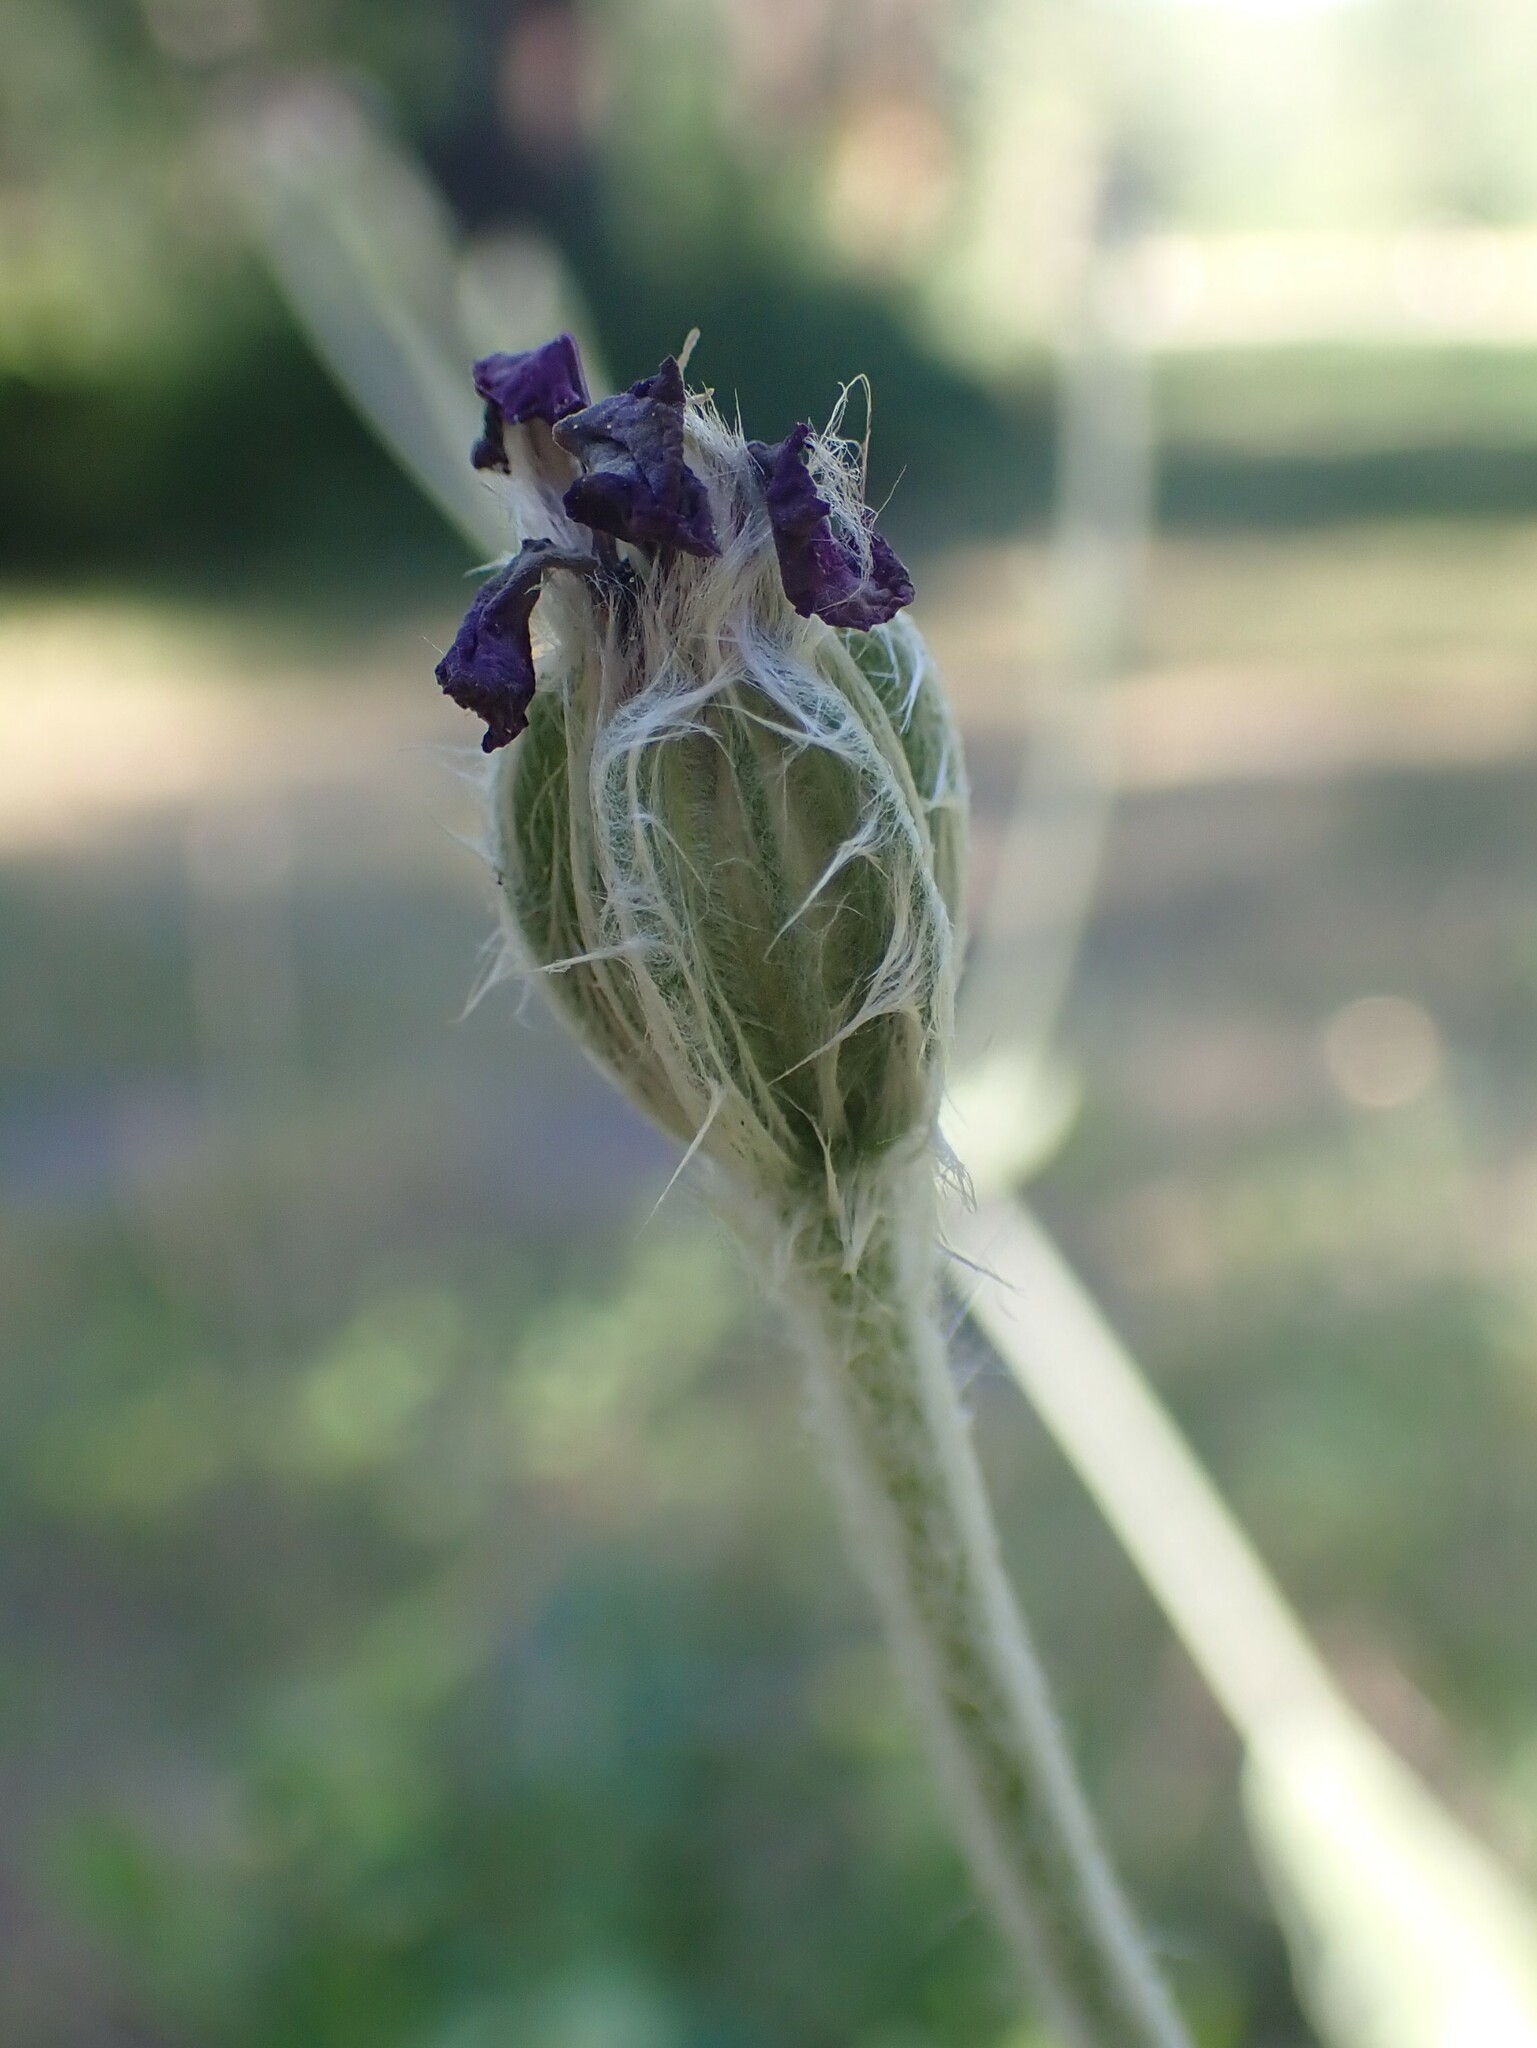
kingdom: Plantae
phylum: Tracheophyta
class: Magnoliopsida
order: Caryophyllales
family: Caryophyllaceae
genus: Silene
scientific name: Silene coronaria
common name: Rose campion
